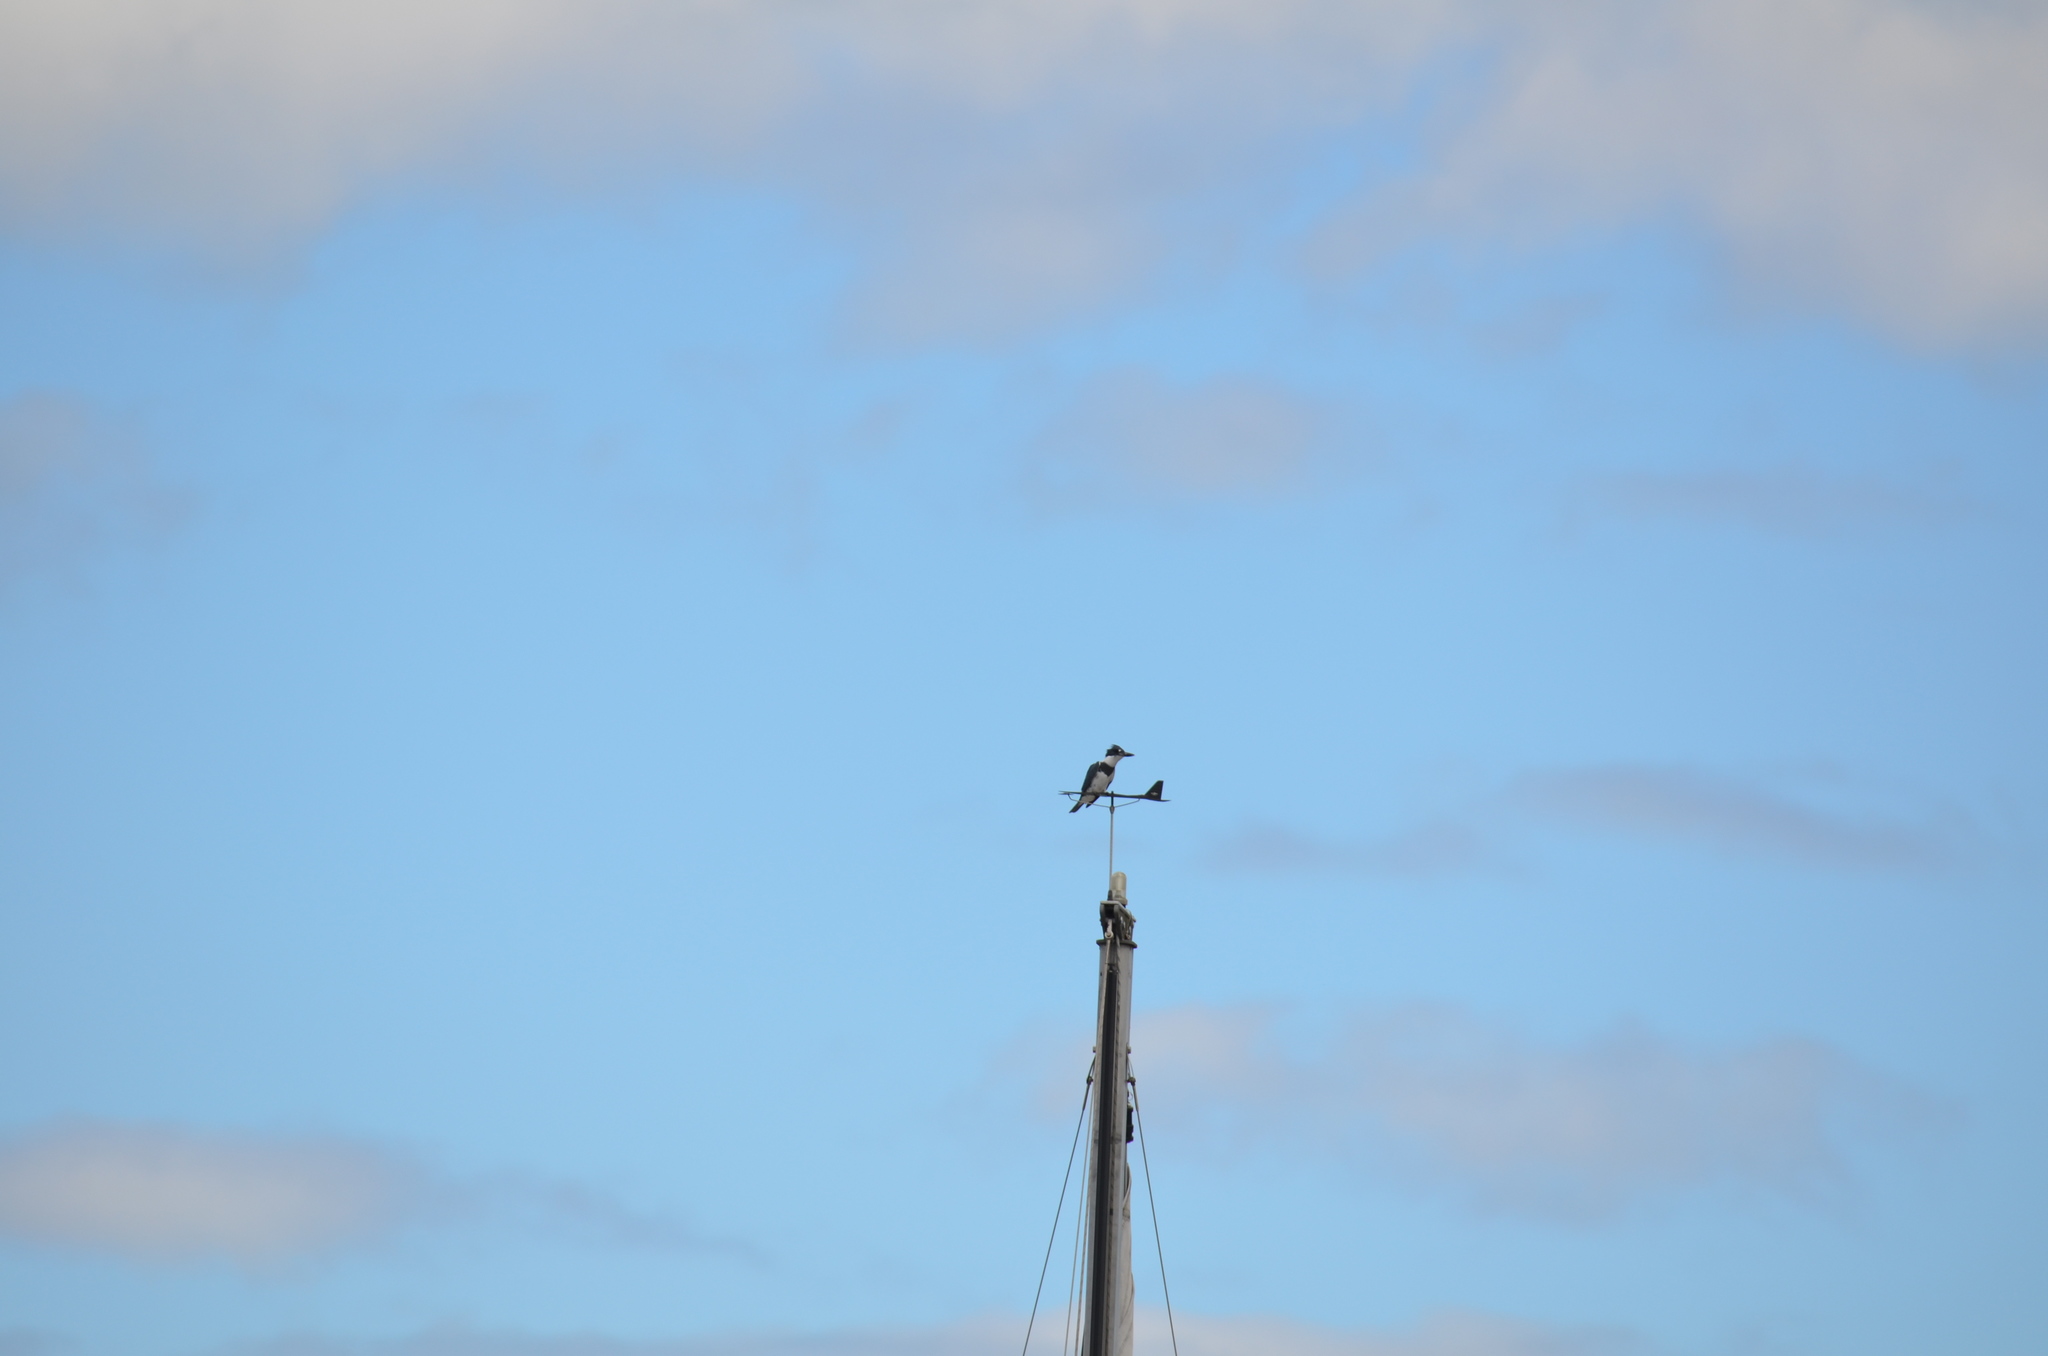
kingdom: Animalia
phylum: Chordata
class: Aves
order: Coraciiformes
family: Alcedinidae
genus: Megaceryle
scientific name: Megaceryle alcyon
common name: Belted kingfisher
